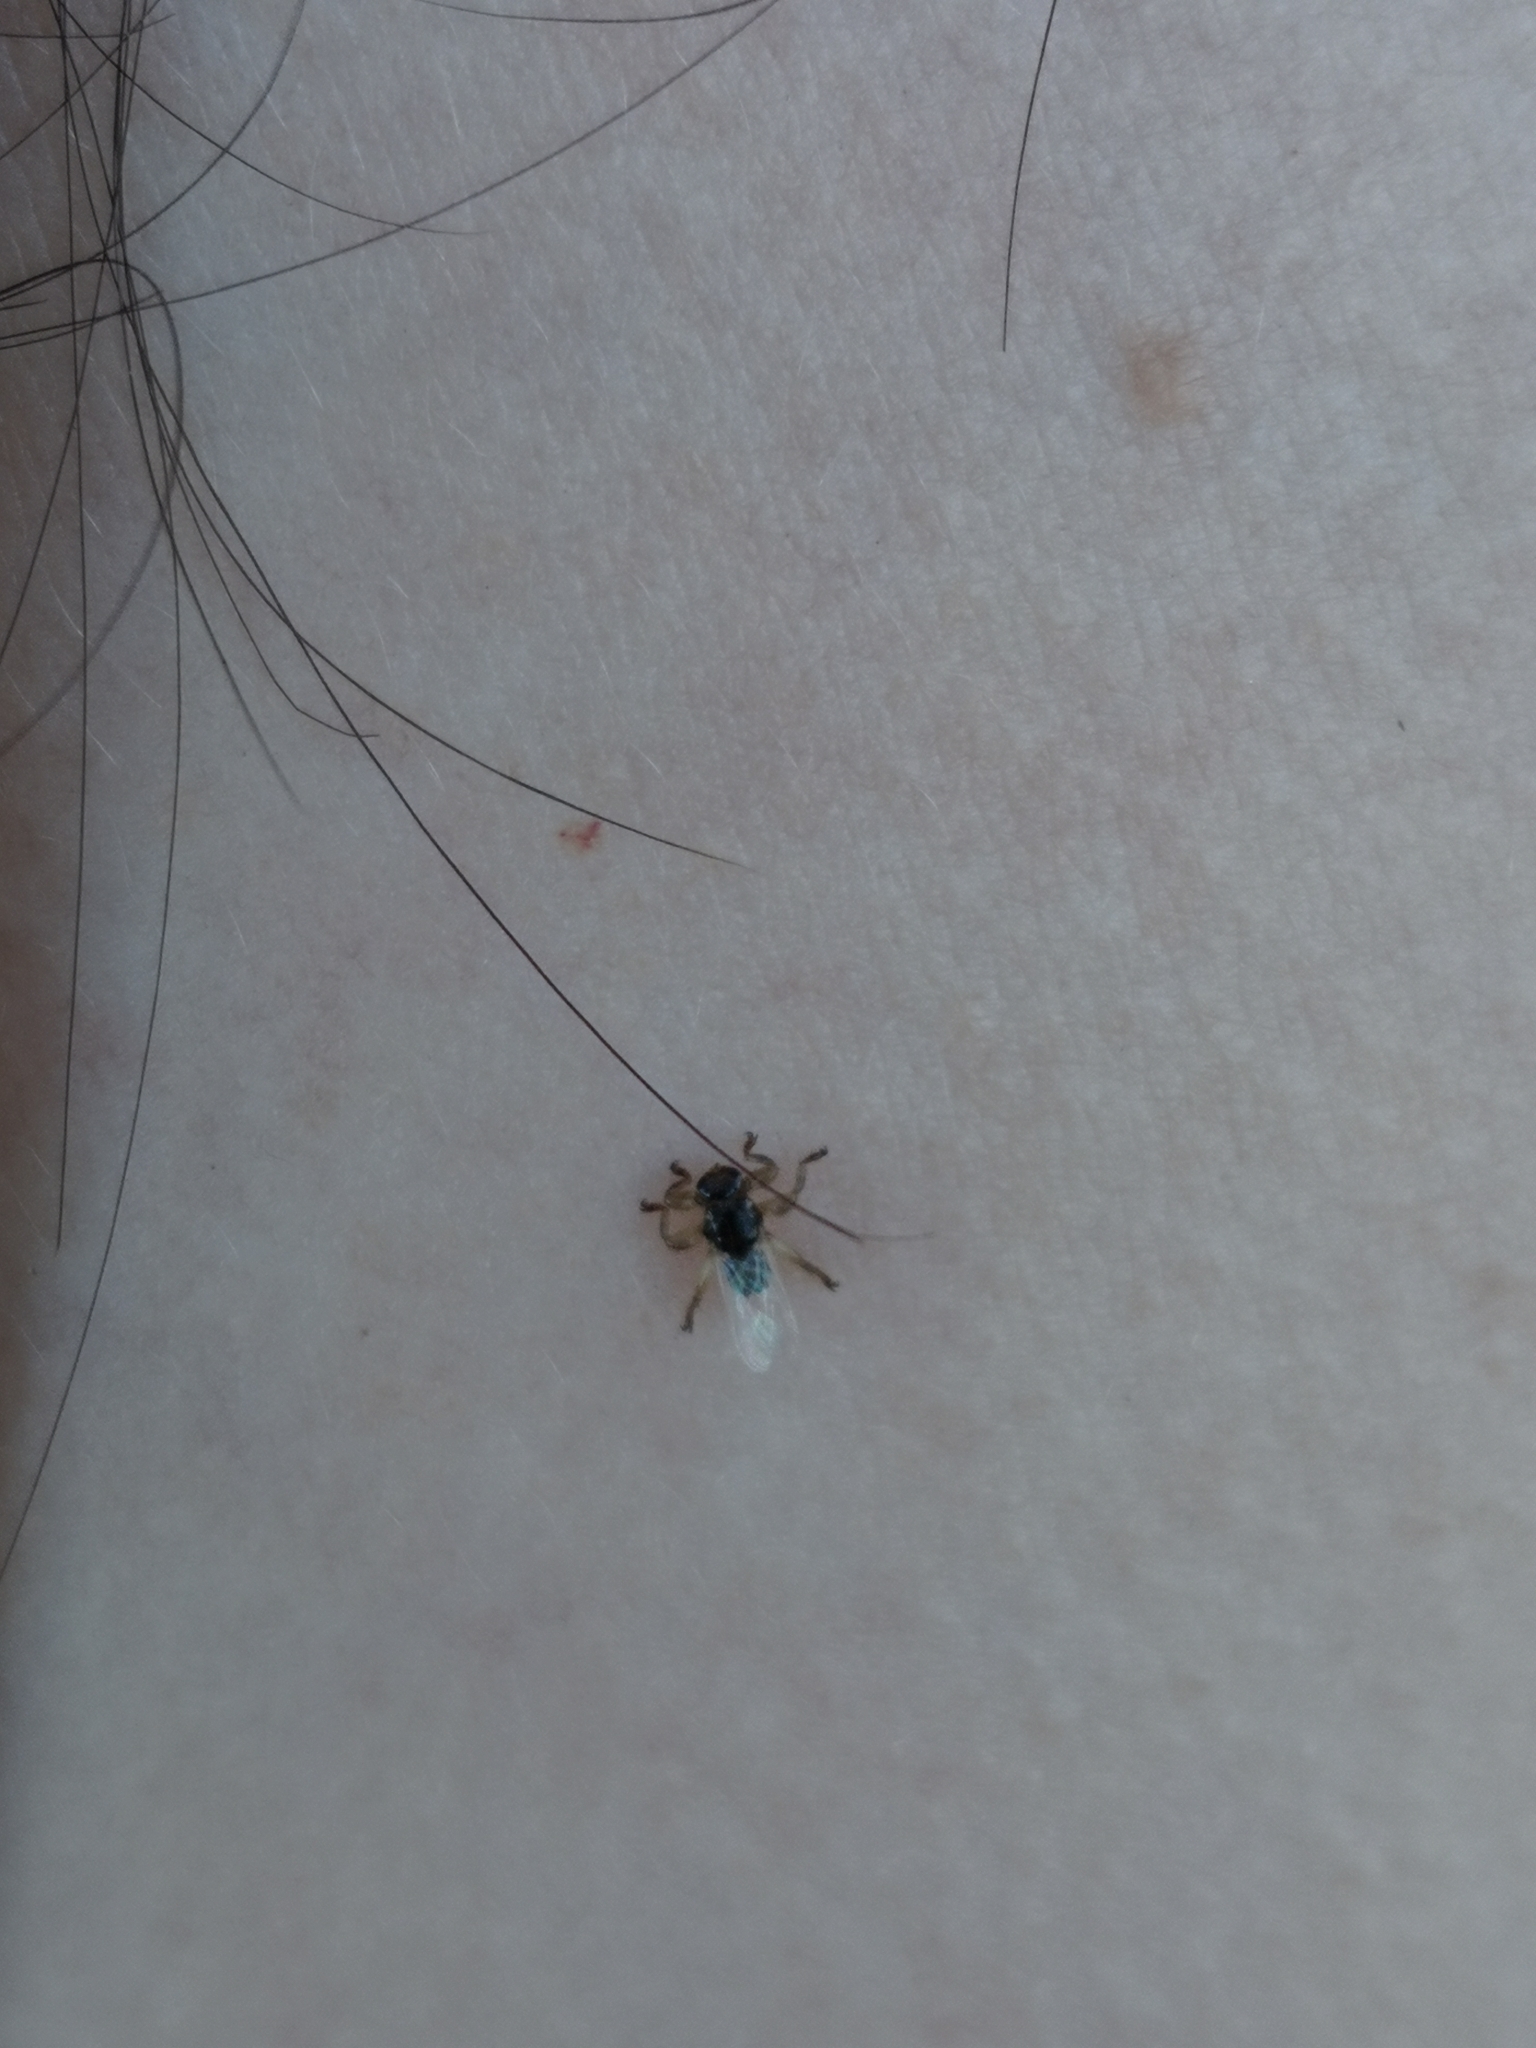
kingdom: Animalia
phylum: Arthropoda
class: Insecta
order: Diptera
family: Hippoboscidae
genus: Lipoptena
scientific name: Lipoptena
